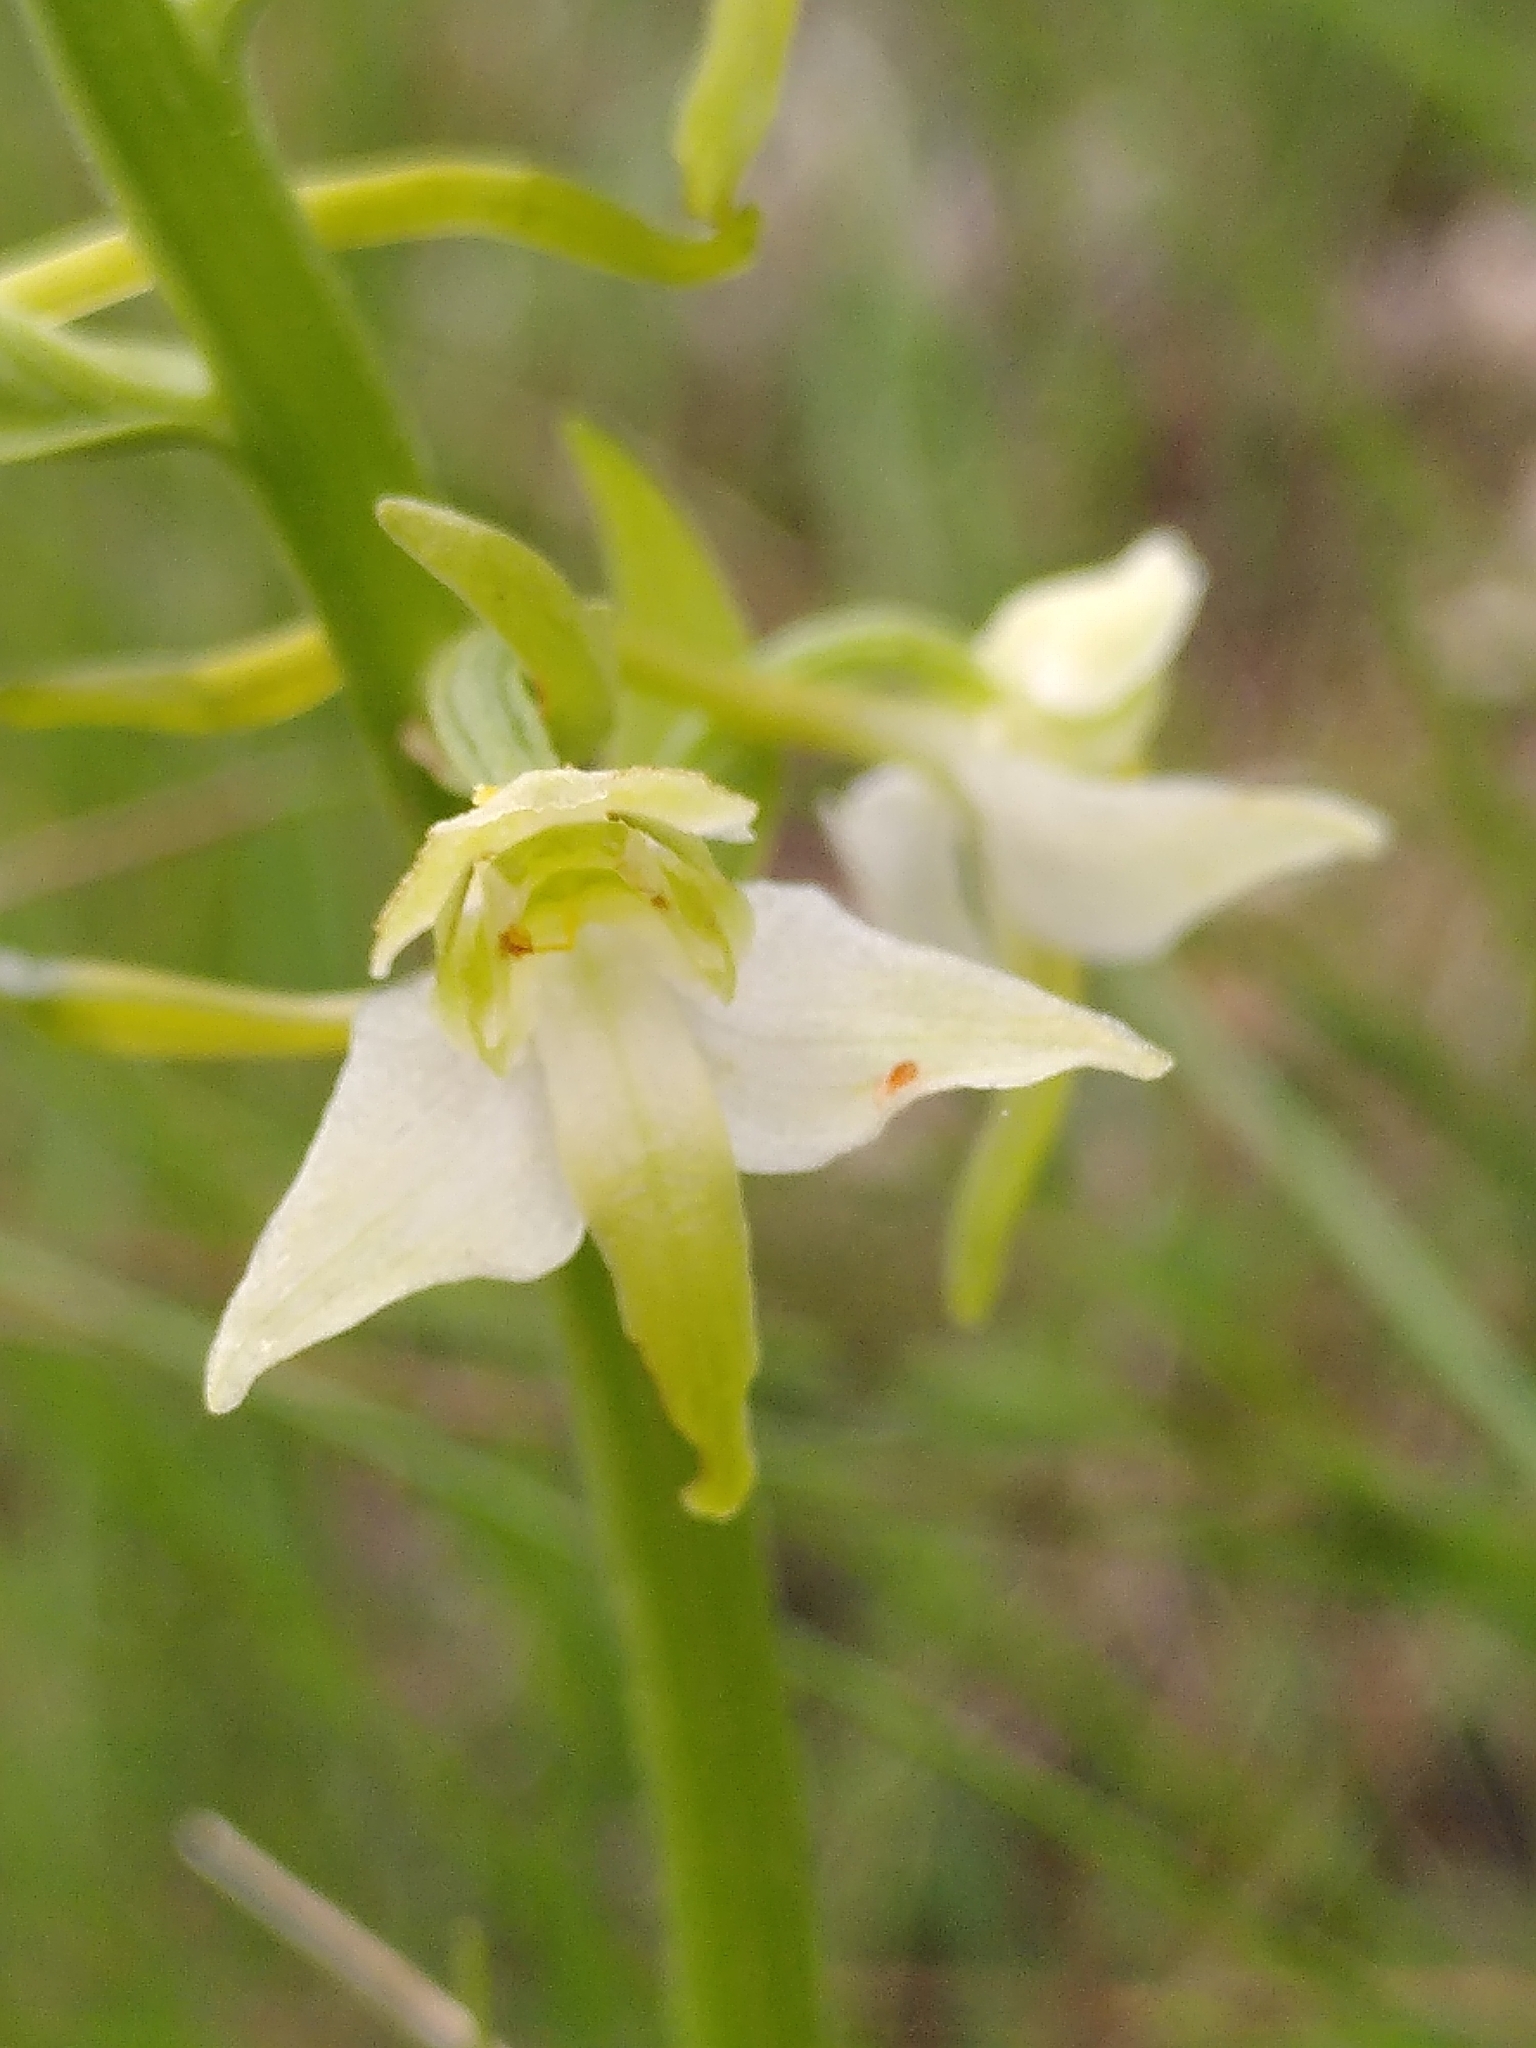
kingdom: Plantae
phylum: Tracheophyta
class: Liliopsida
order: Asparagales
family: Orchidaceae
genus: Platanthera
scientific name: Platanthera chlorantha
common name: Greater butterfly-orchid
